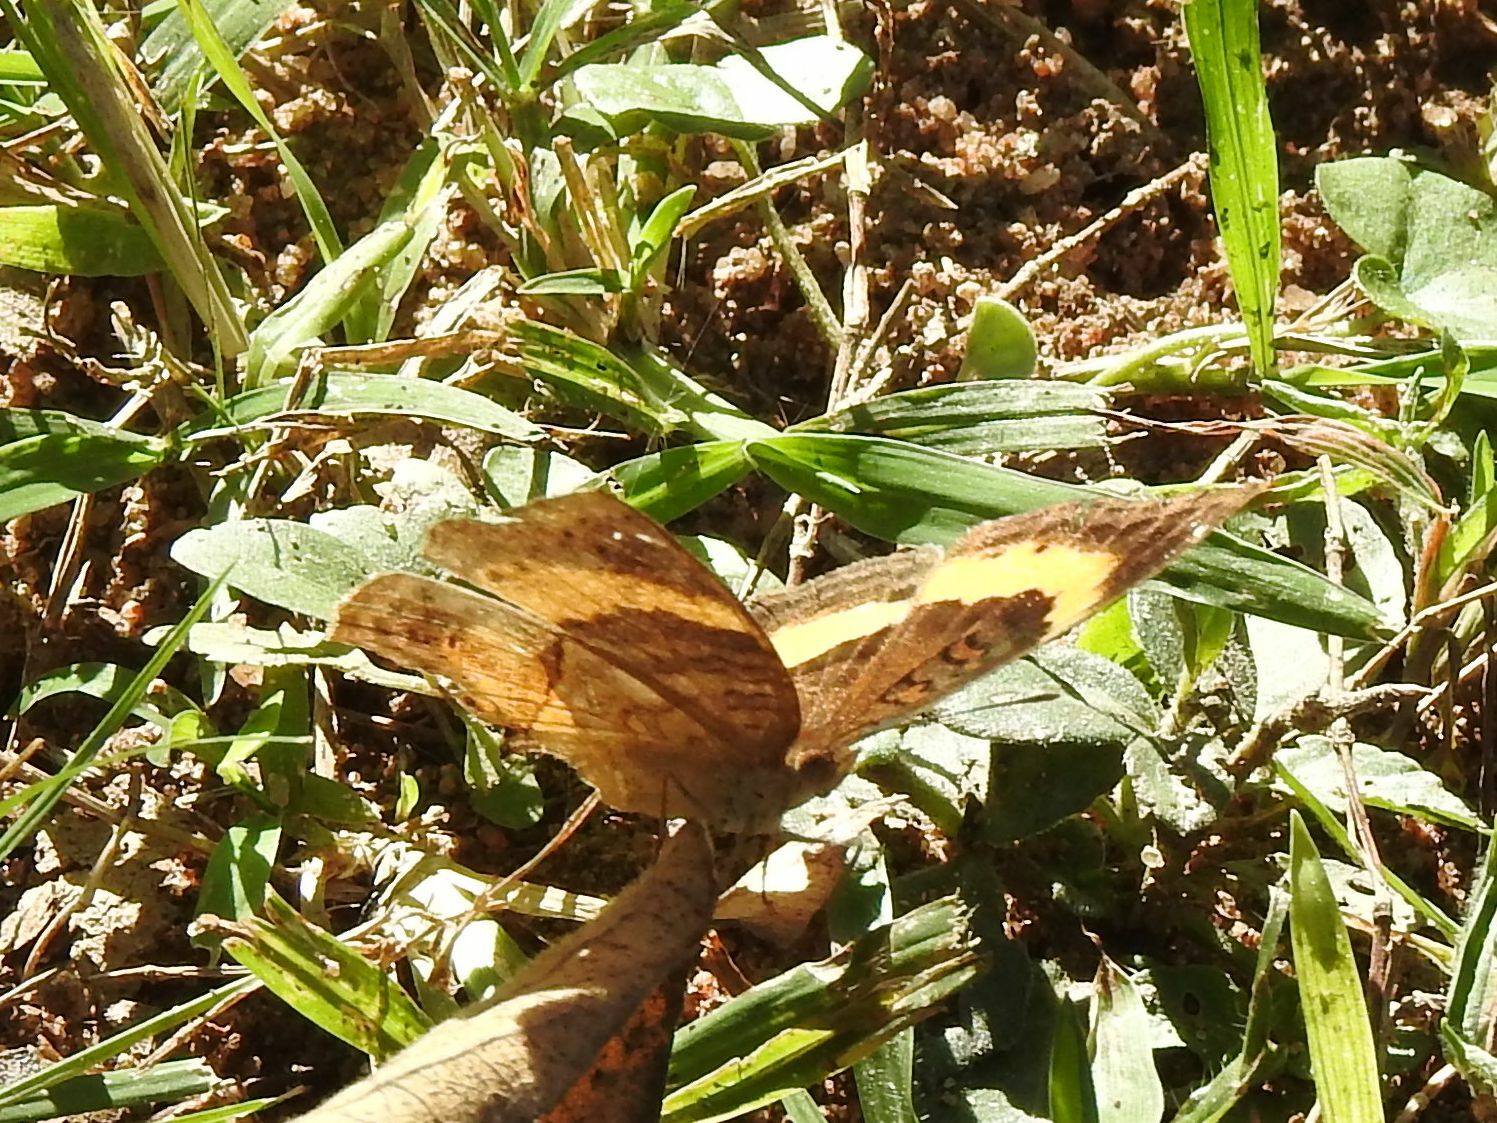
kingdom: Animalia
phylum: Arthropoda
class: Insecta
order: Lepidoptera
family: Nymphalidae
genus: Junonia
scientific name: Junonia terea
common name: Soldier pansy
